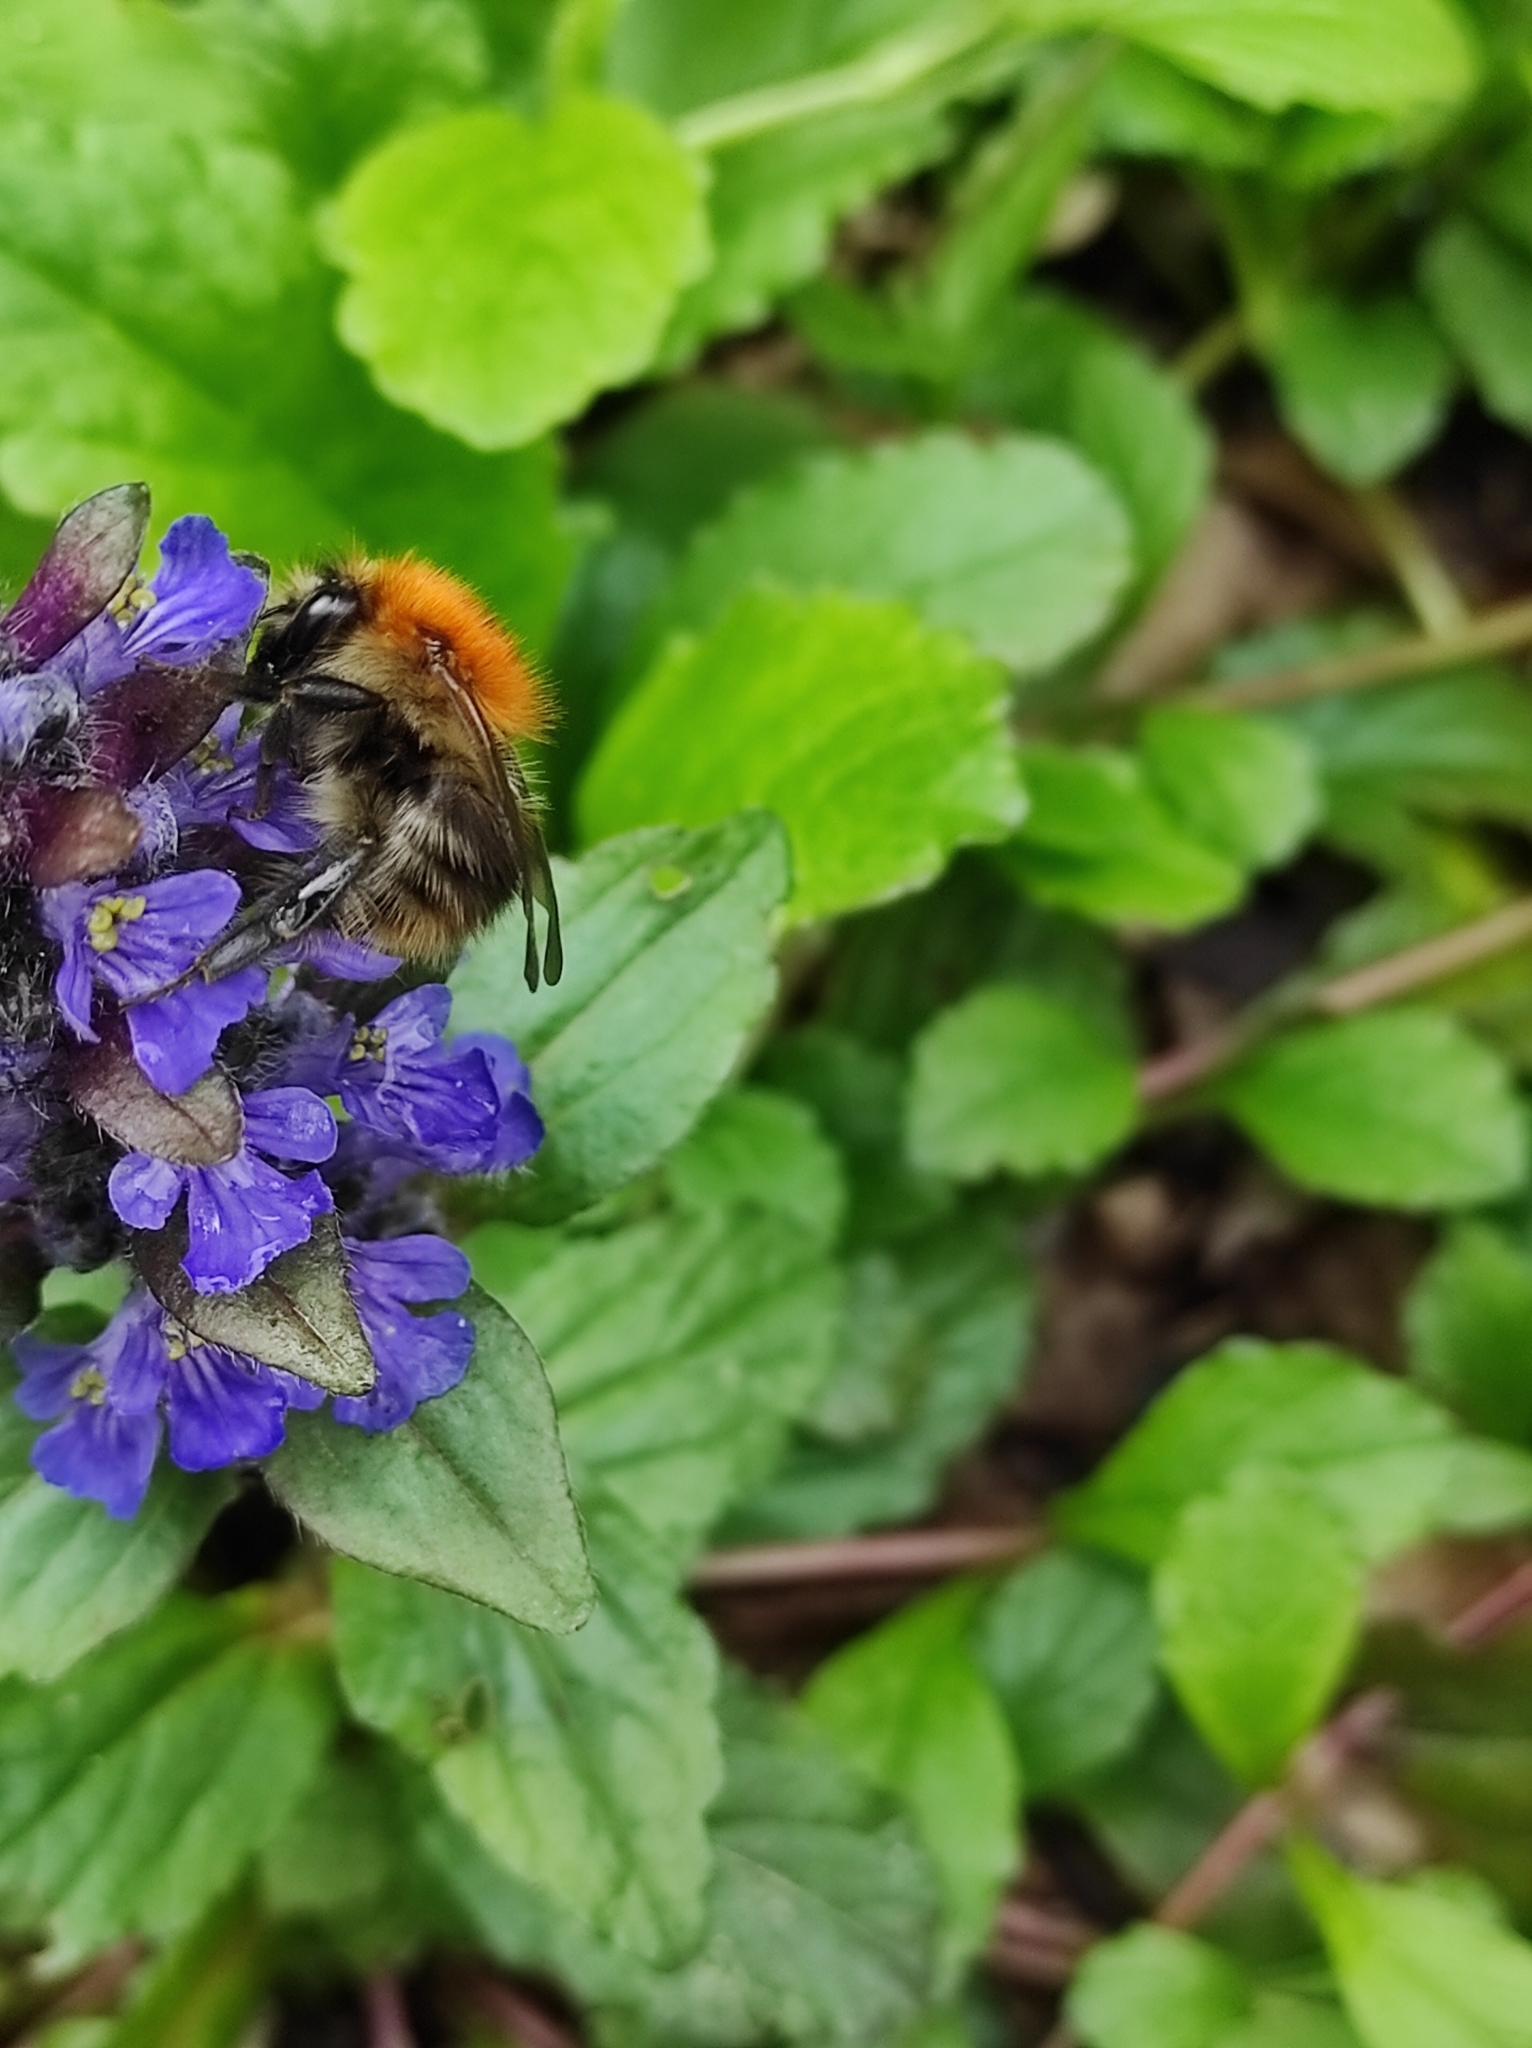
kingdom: Animalia
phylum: Arthropoda
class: Insecta
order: Hymenoptera
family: Apidae
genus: Bombus
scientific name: Bombus pascuorum
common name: Common carder bee
